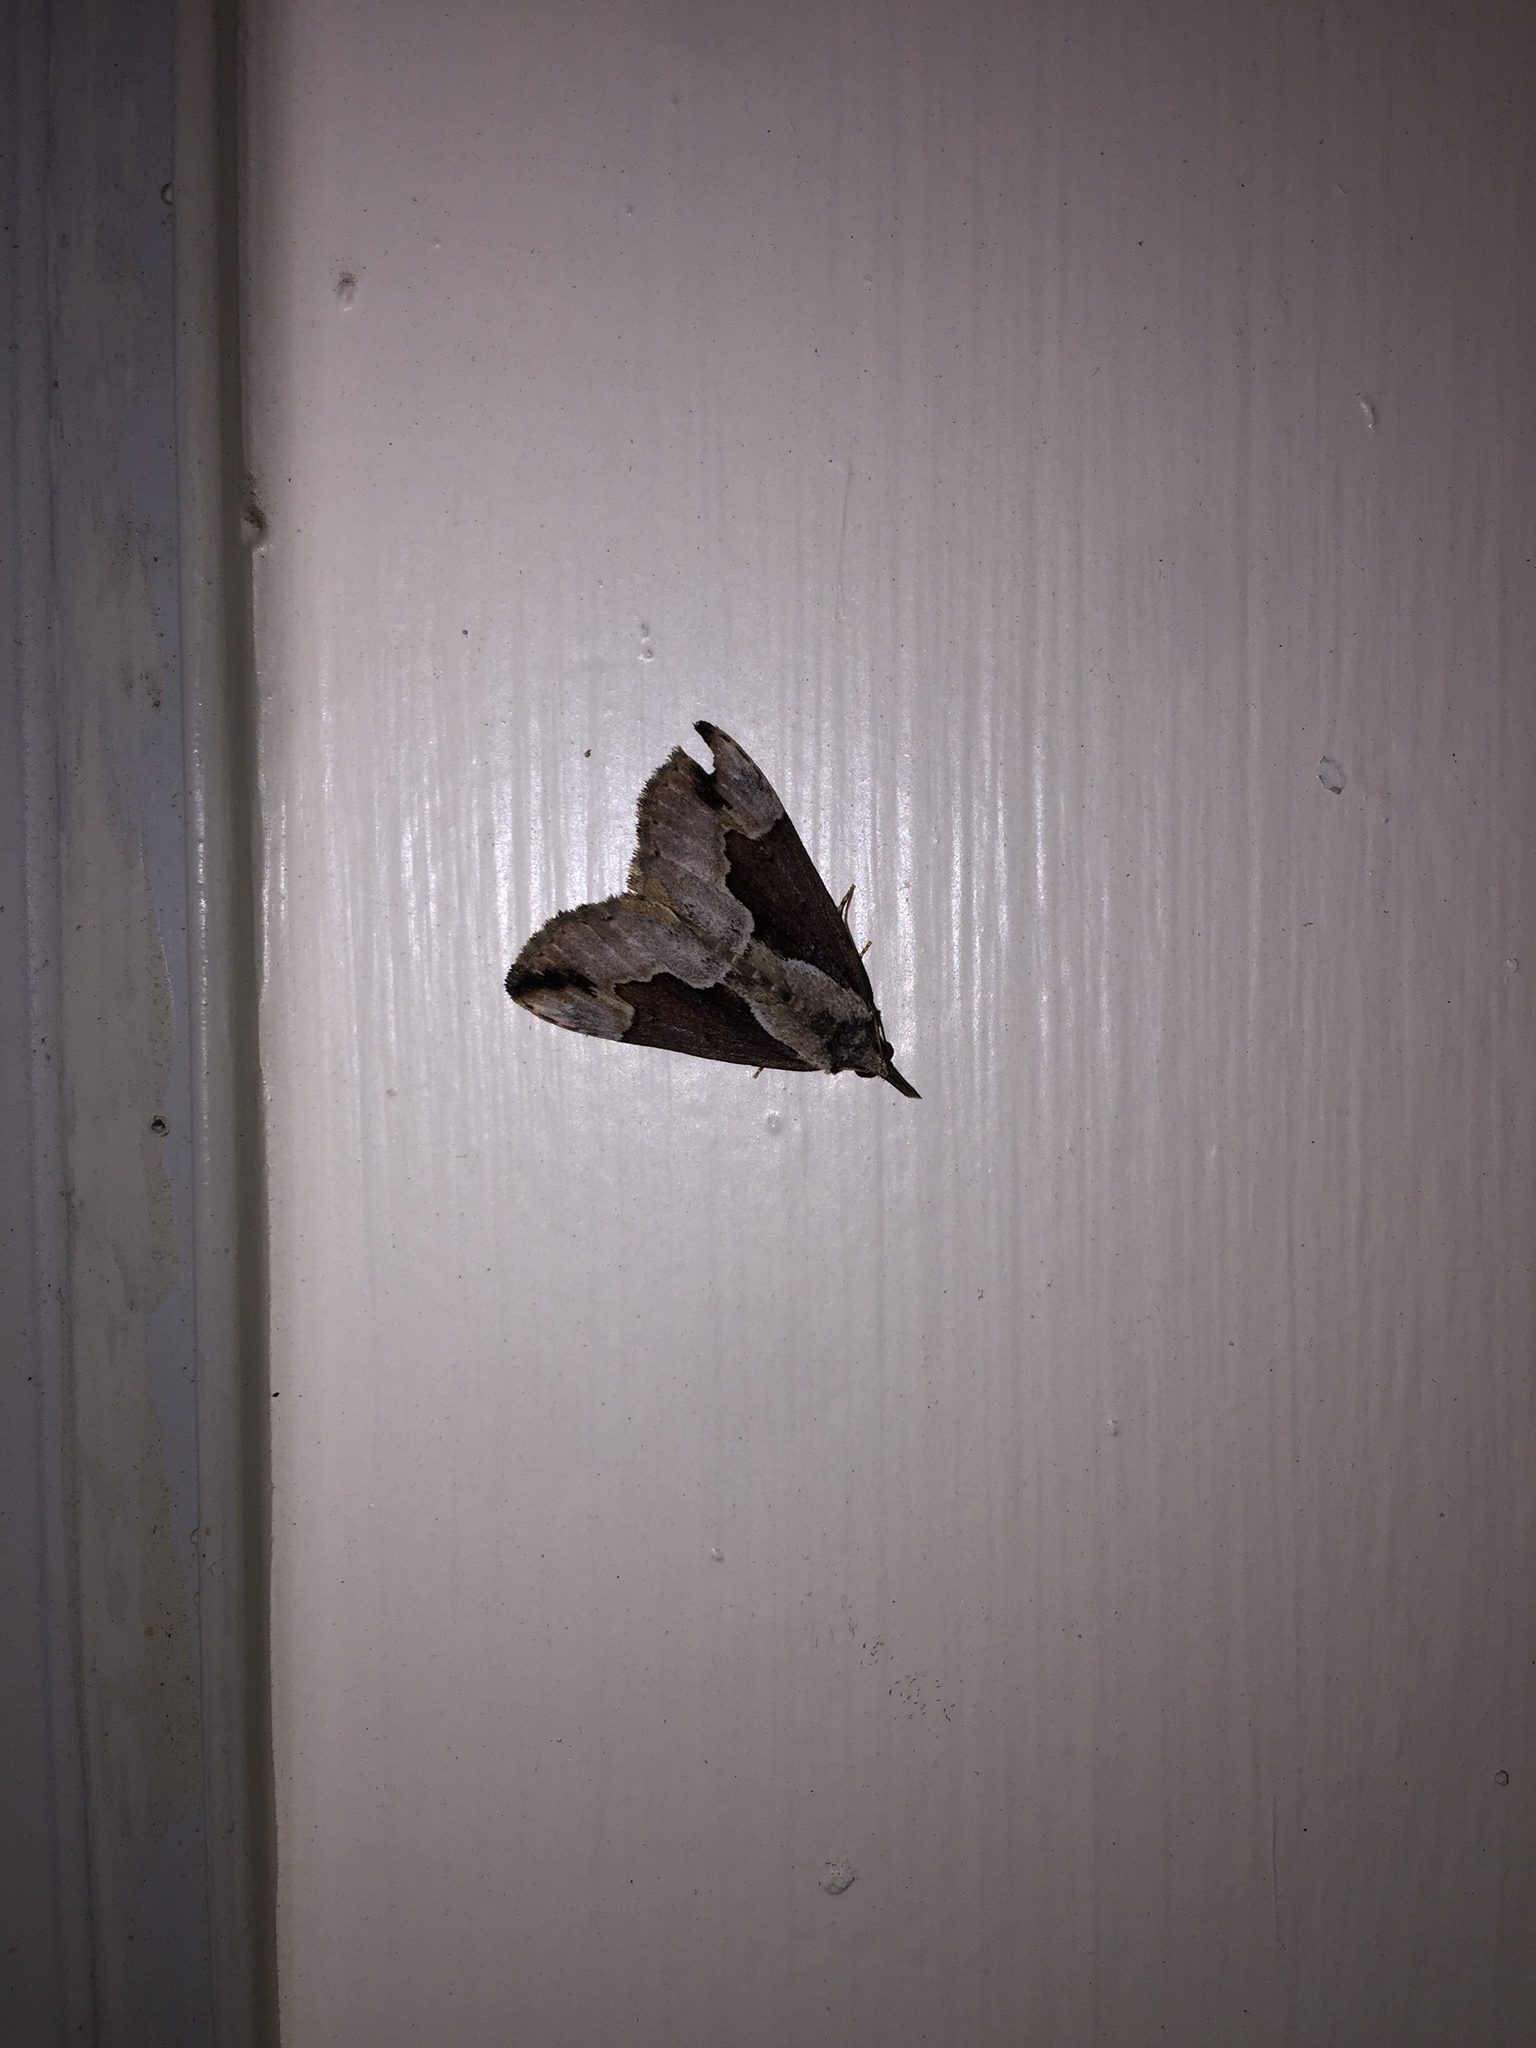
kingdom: Animalia
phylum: Arthropoda
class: Insecta
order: Lepidoptera
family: Erebidae
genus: Hypena
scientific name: Hypena baltimoralis
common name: Baltimore snout
